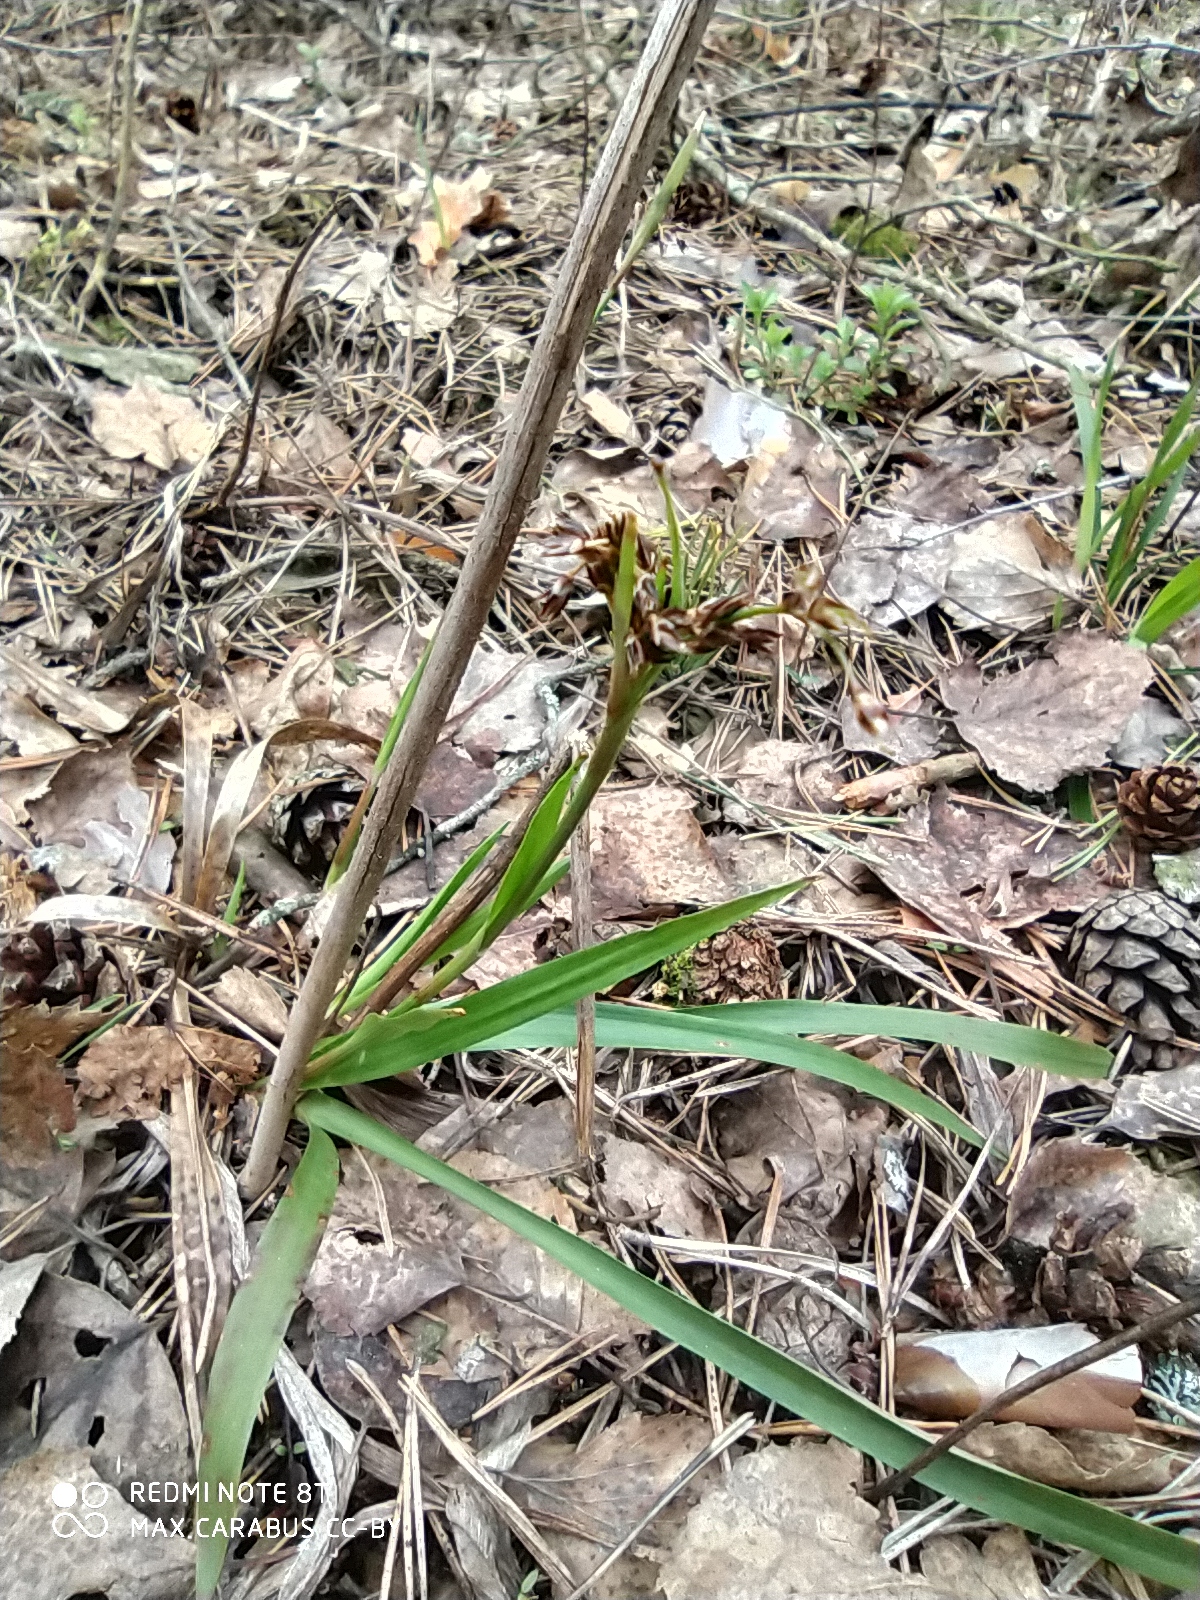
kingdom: Plantae
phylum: Tracheophyta
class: Liliopsida
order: Poales
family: Juncaceae
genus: Luzula
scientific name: Luzula pilosa
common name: Hairy wood-rush
